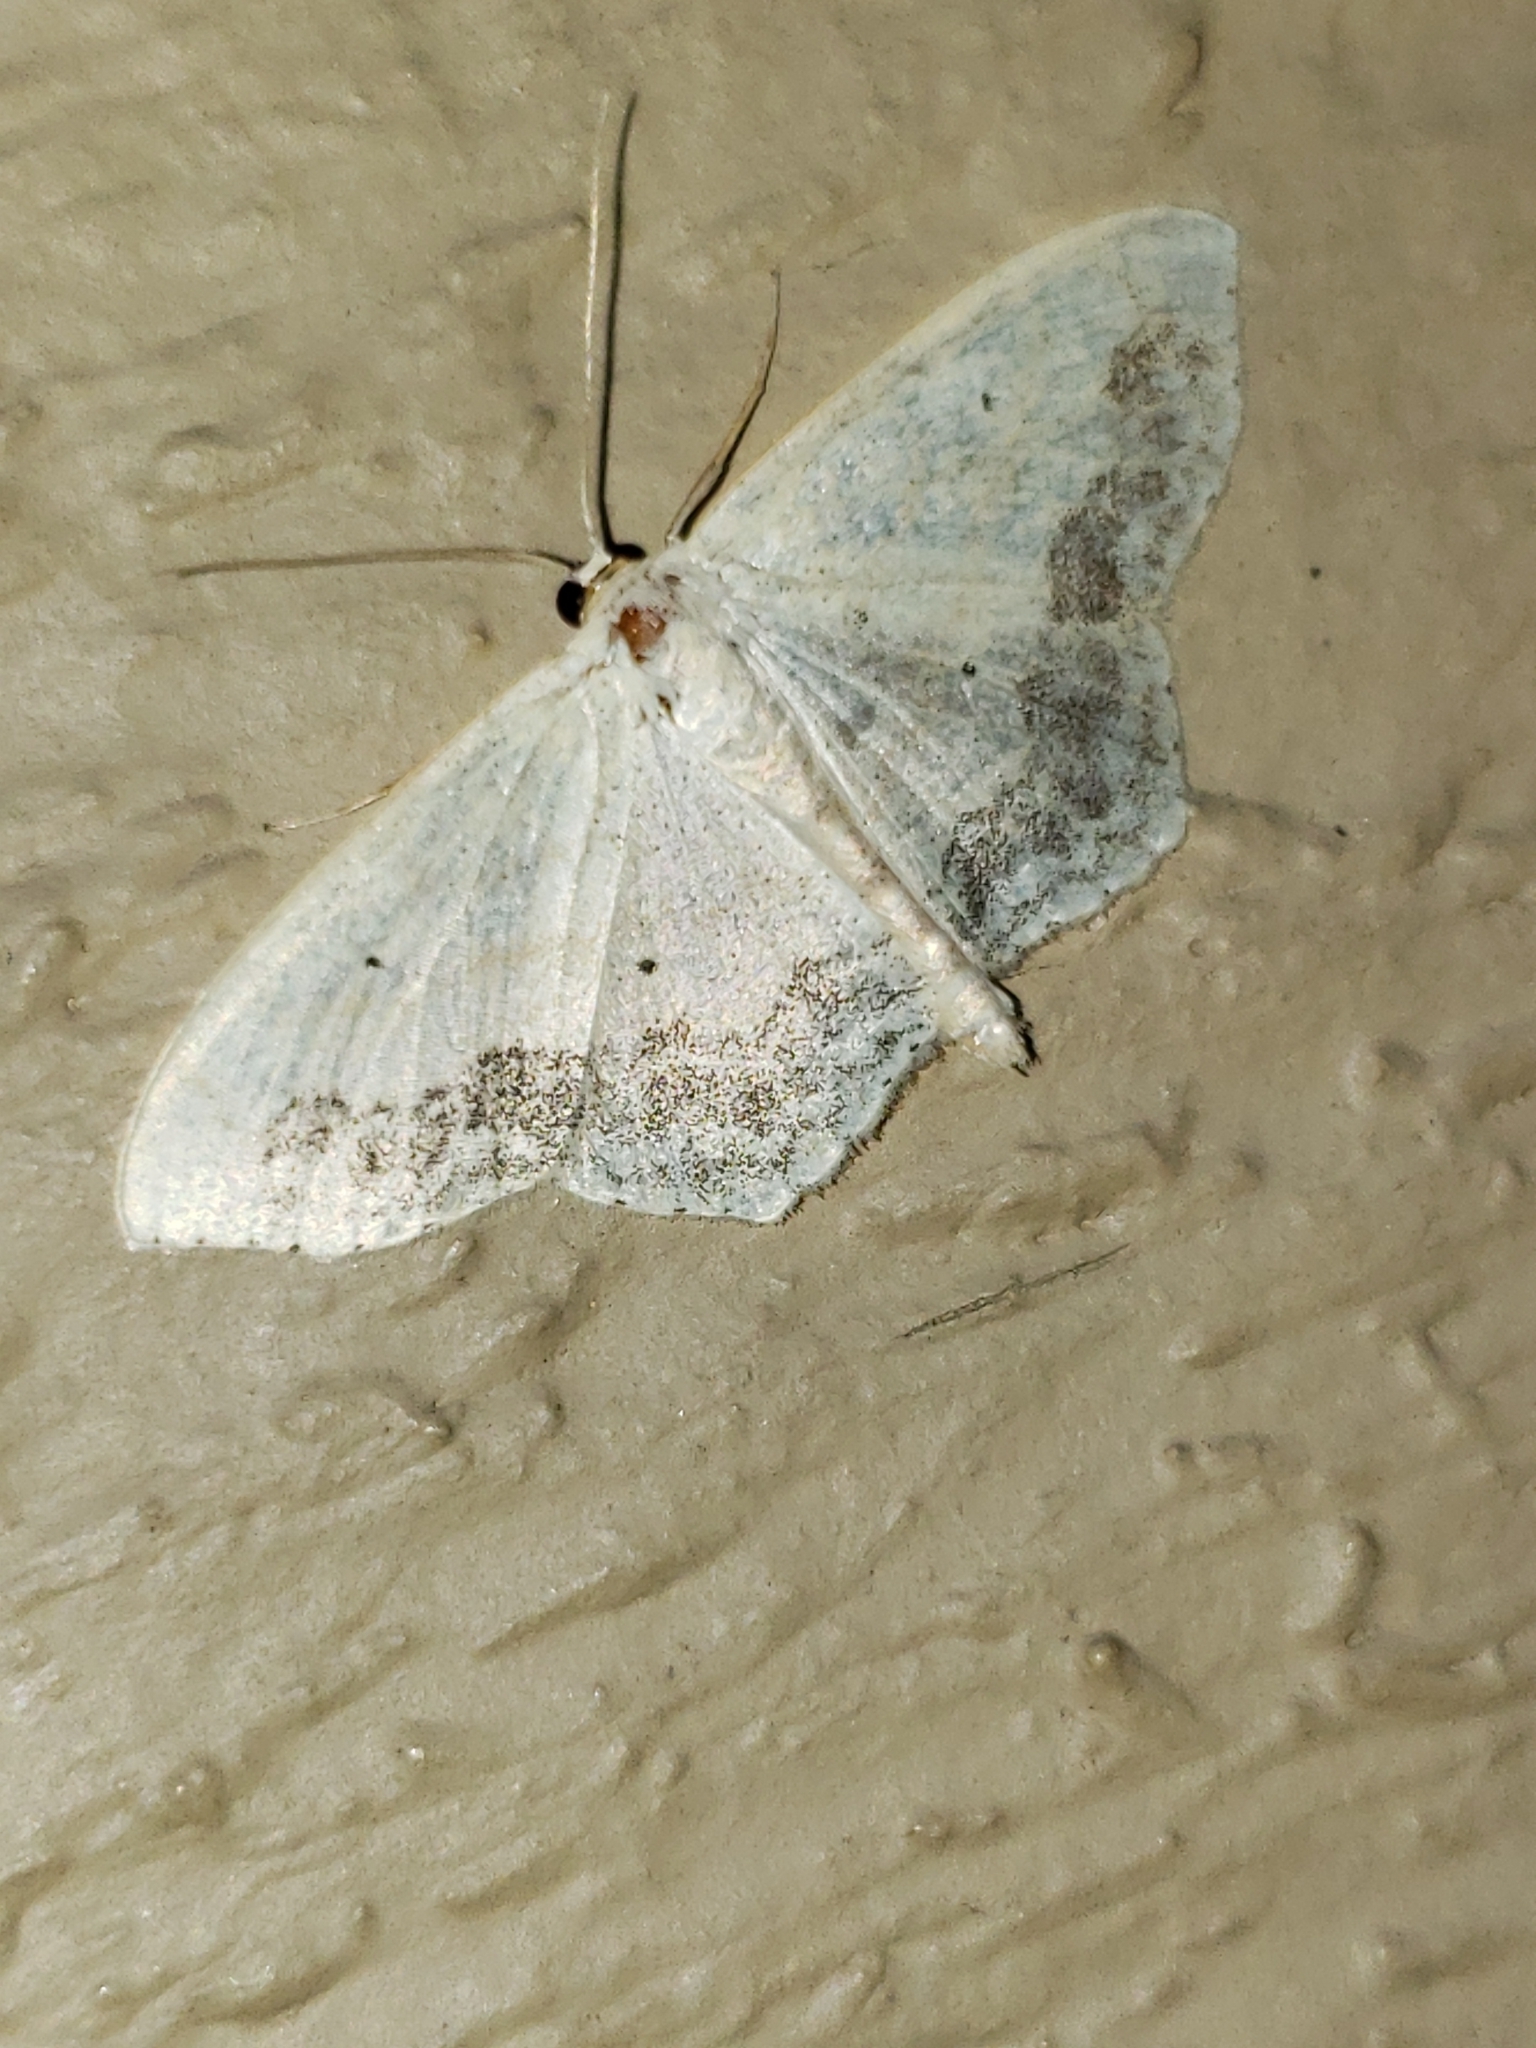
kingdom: Animalia
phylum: Arthropoda
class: Insecta
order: Lepidoptera
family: Geometridae
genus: Scopula
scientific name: Scopula limboundata
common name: Large lace border
